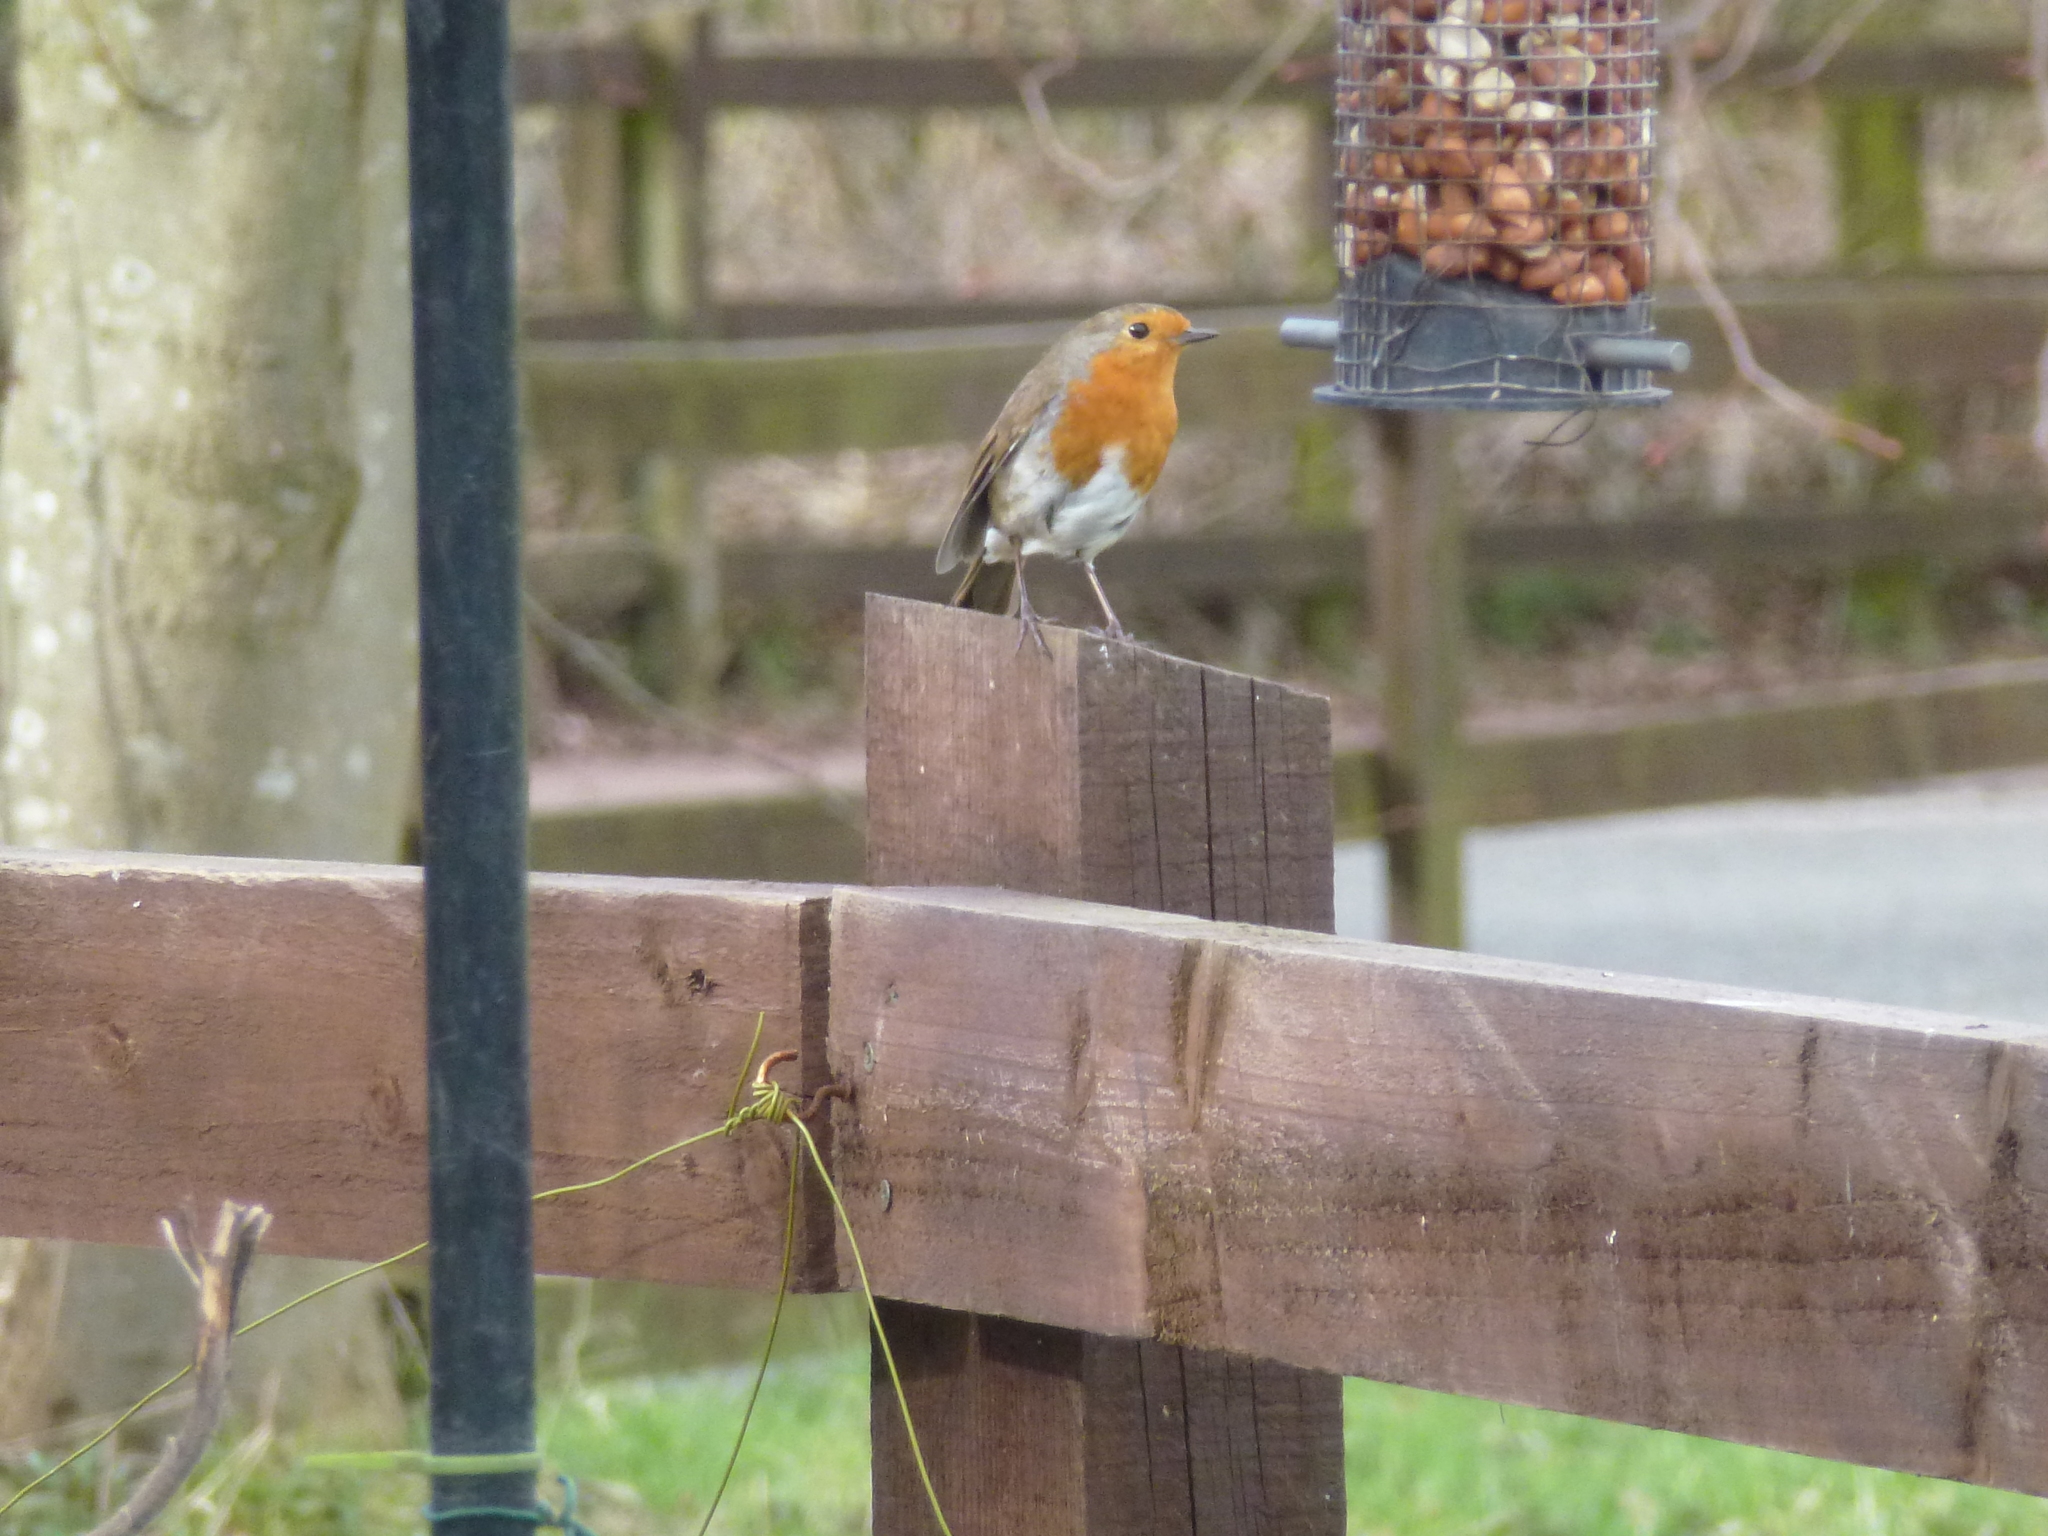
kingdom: Animalia
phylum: Chordata
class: Aves
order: Passeriformes
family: Muscicapidae
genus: Erithacus
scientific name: Erithacus rubecula
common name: European robin
